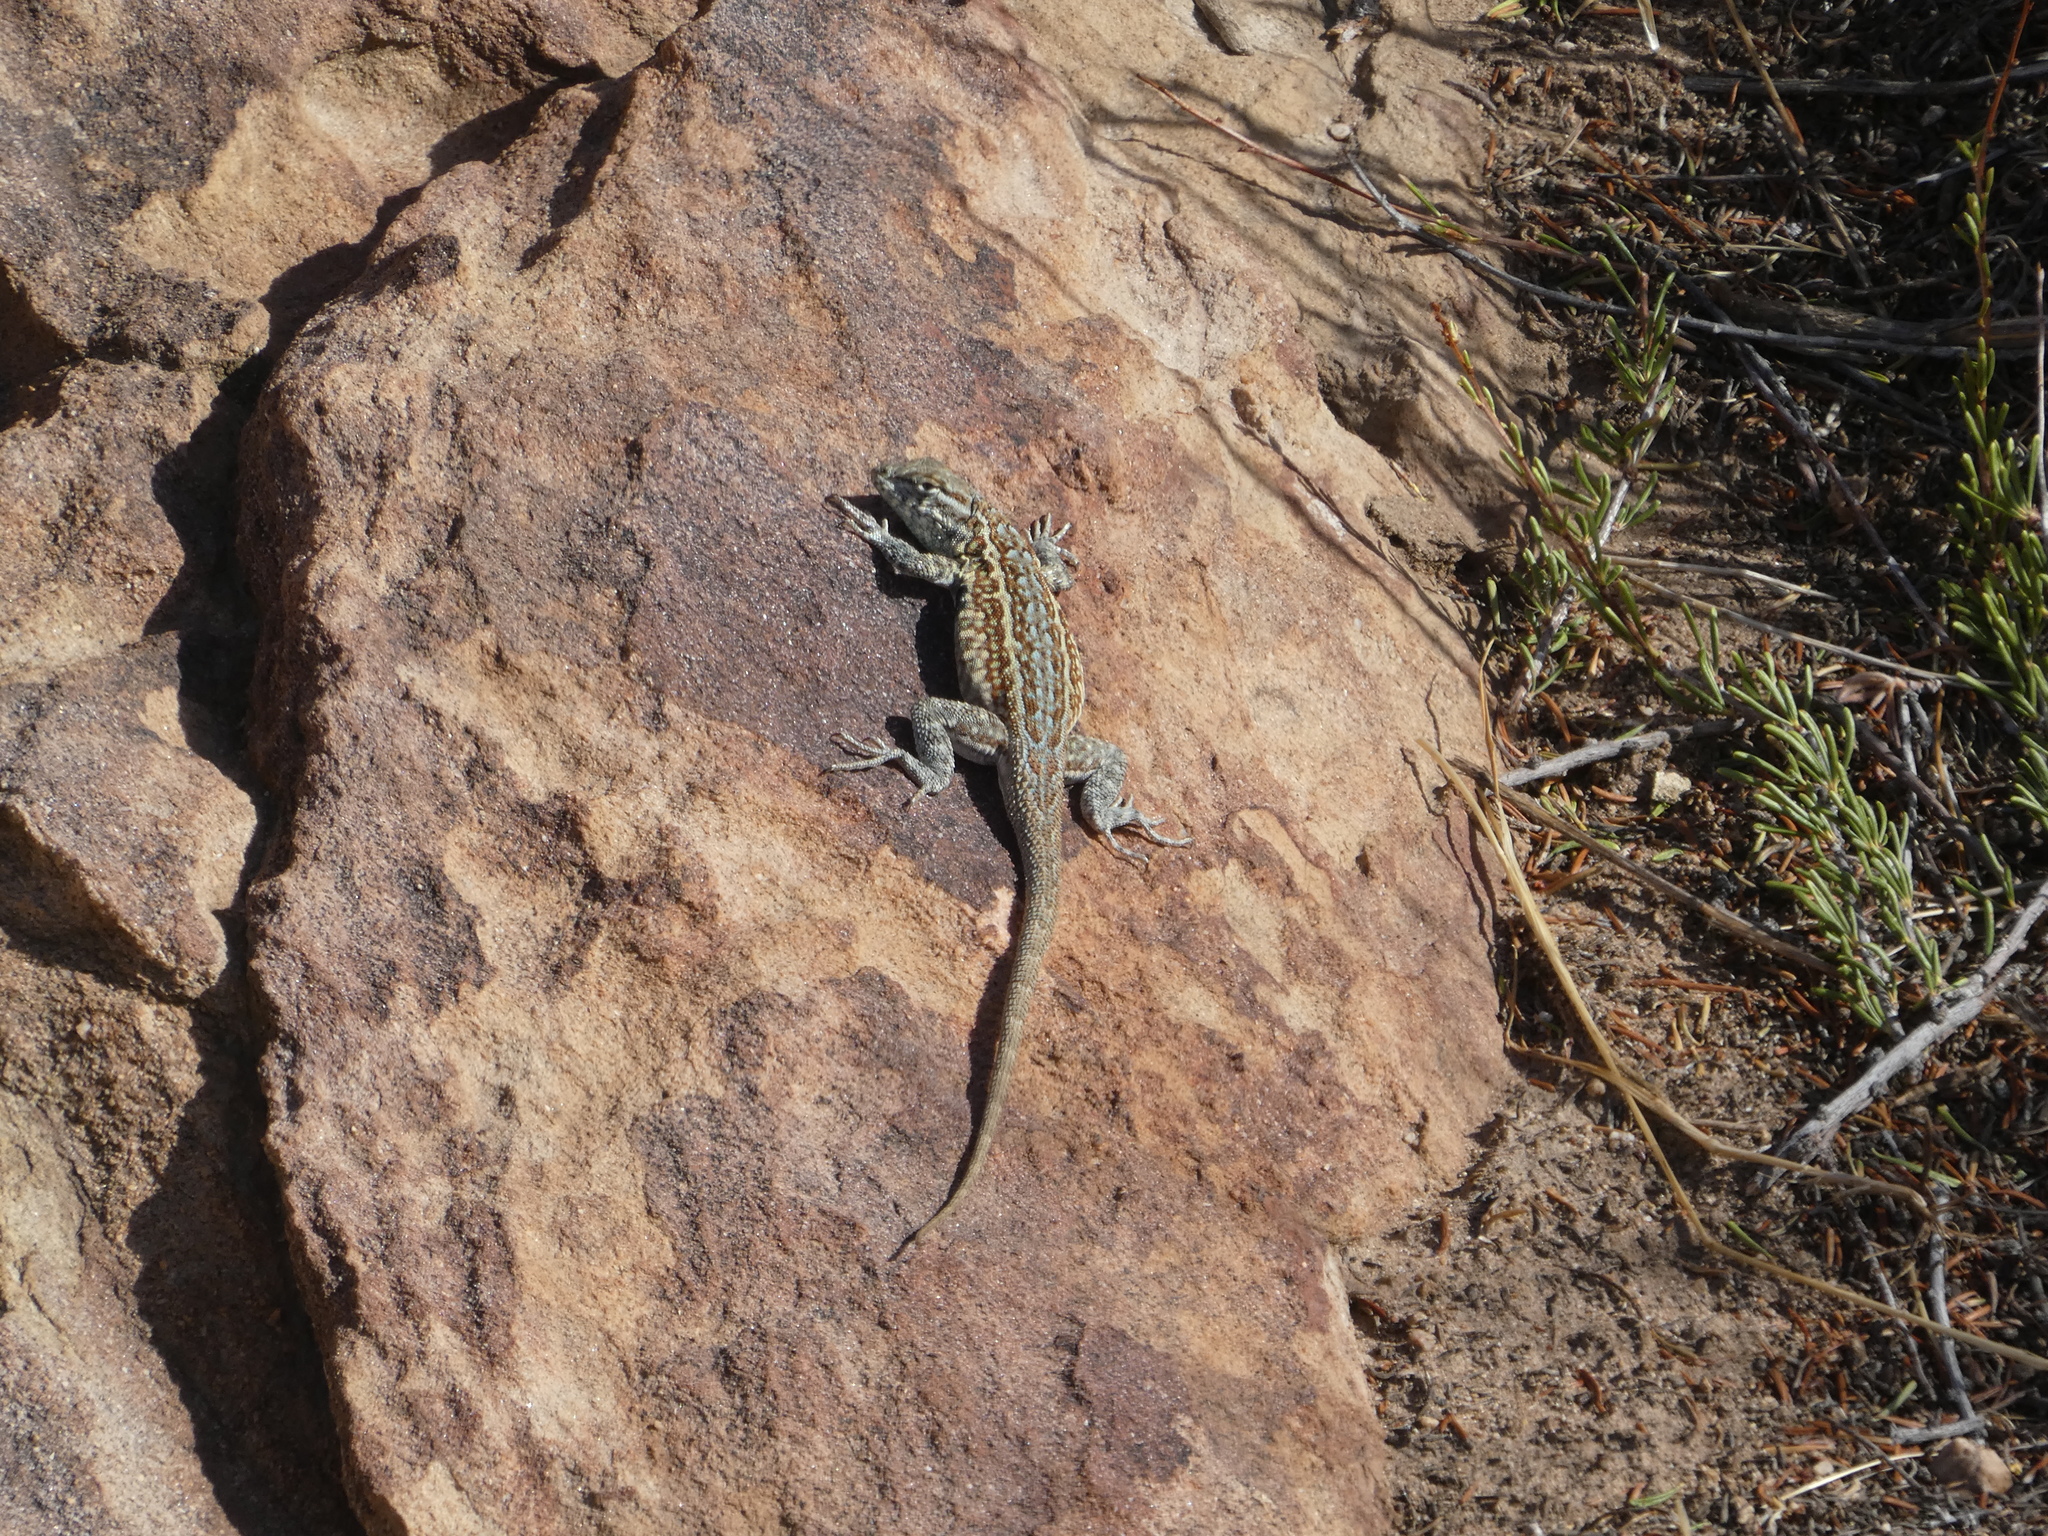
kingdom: Animalia
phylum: Chordata
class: Squamata
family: Phrynosomatidae
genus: Uta
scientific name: Uta stansburiana
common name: Side-blotched lizard
